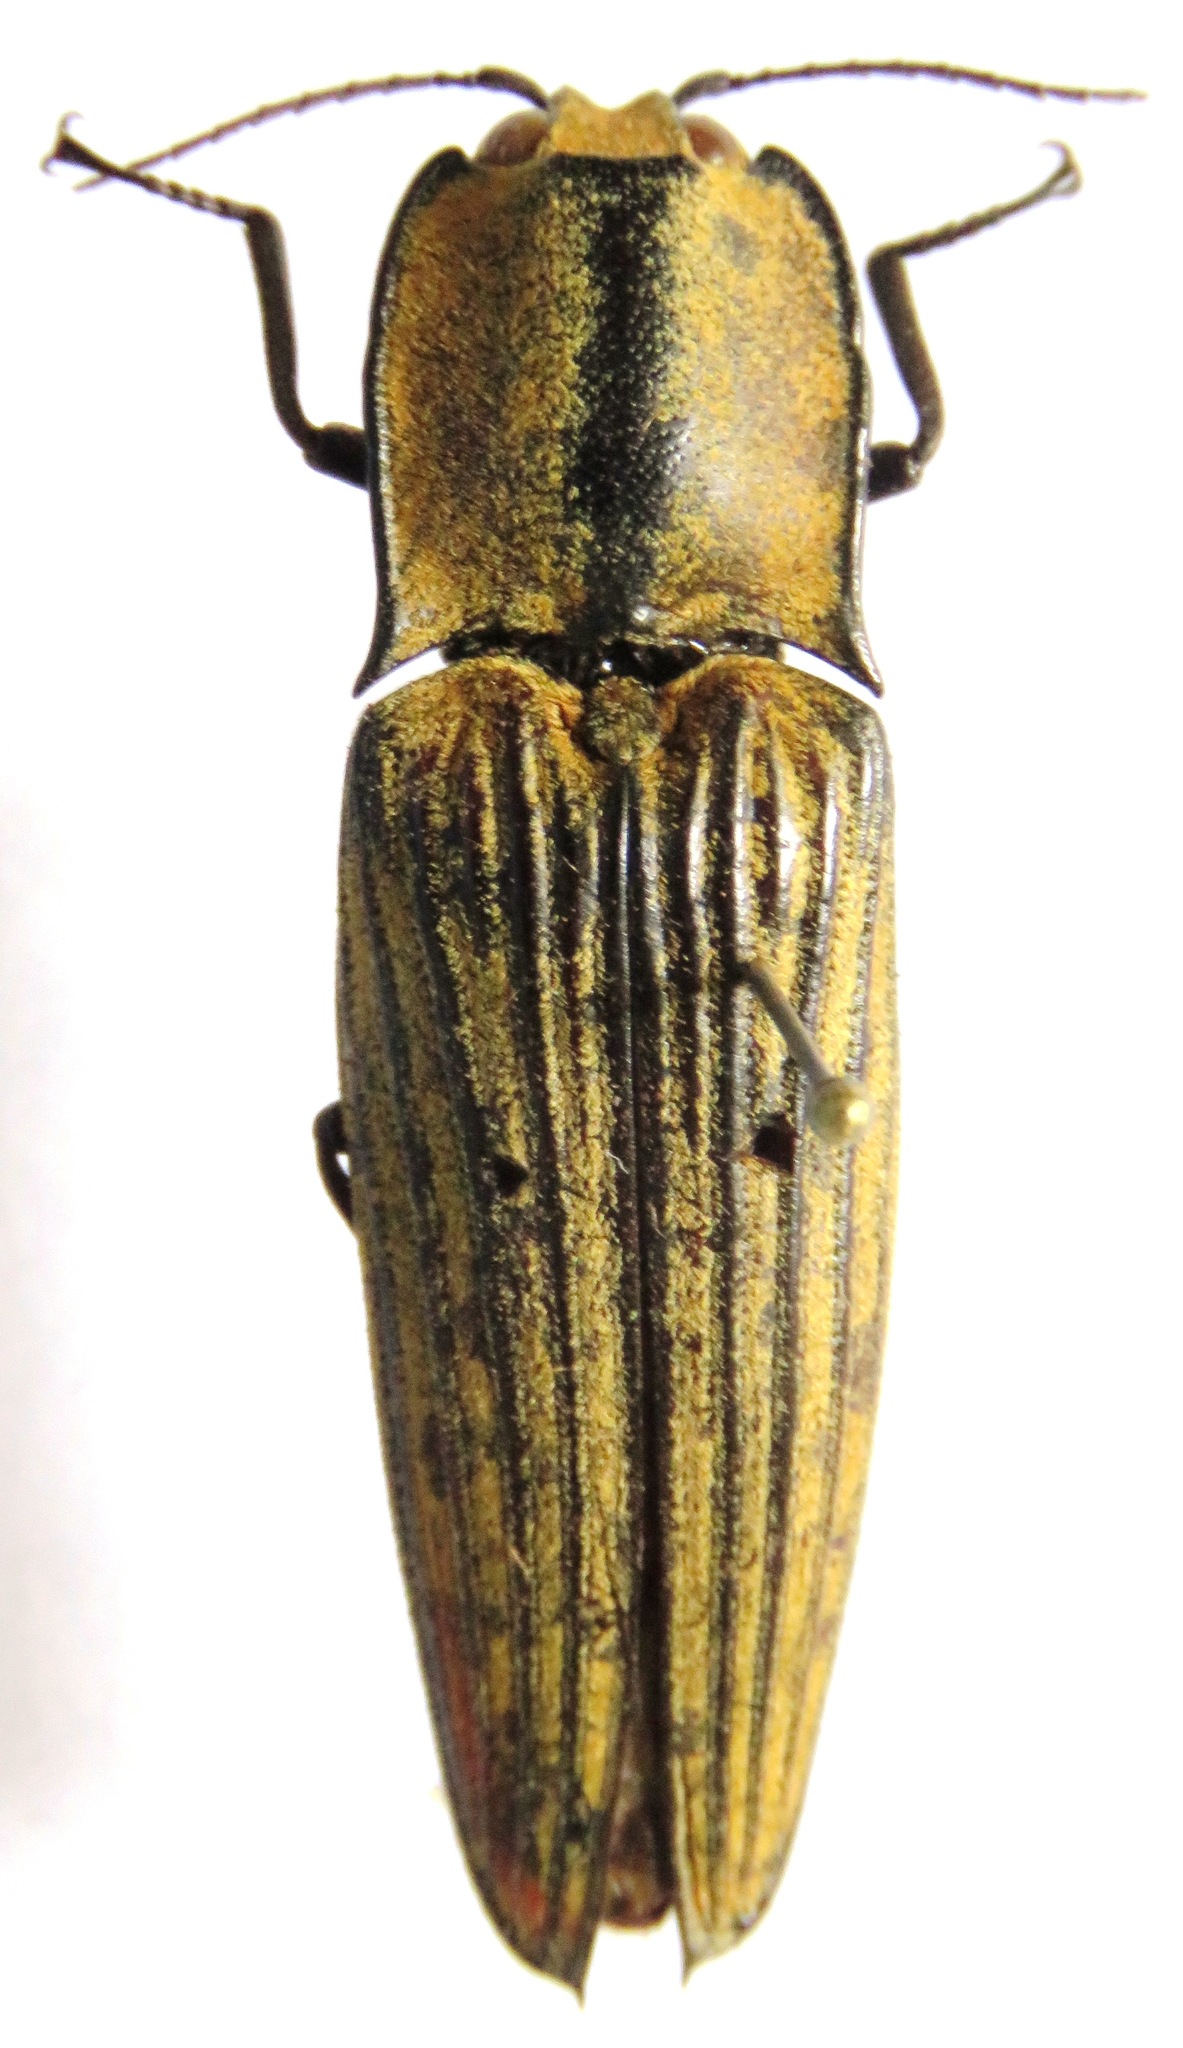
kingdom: Animalia
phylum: Arthropoda
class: Insecta
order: Coleoptera
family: Elateridae
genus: Alaus
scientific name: Alaus
